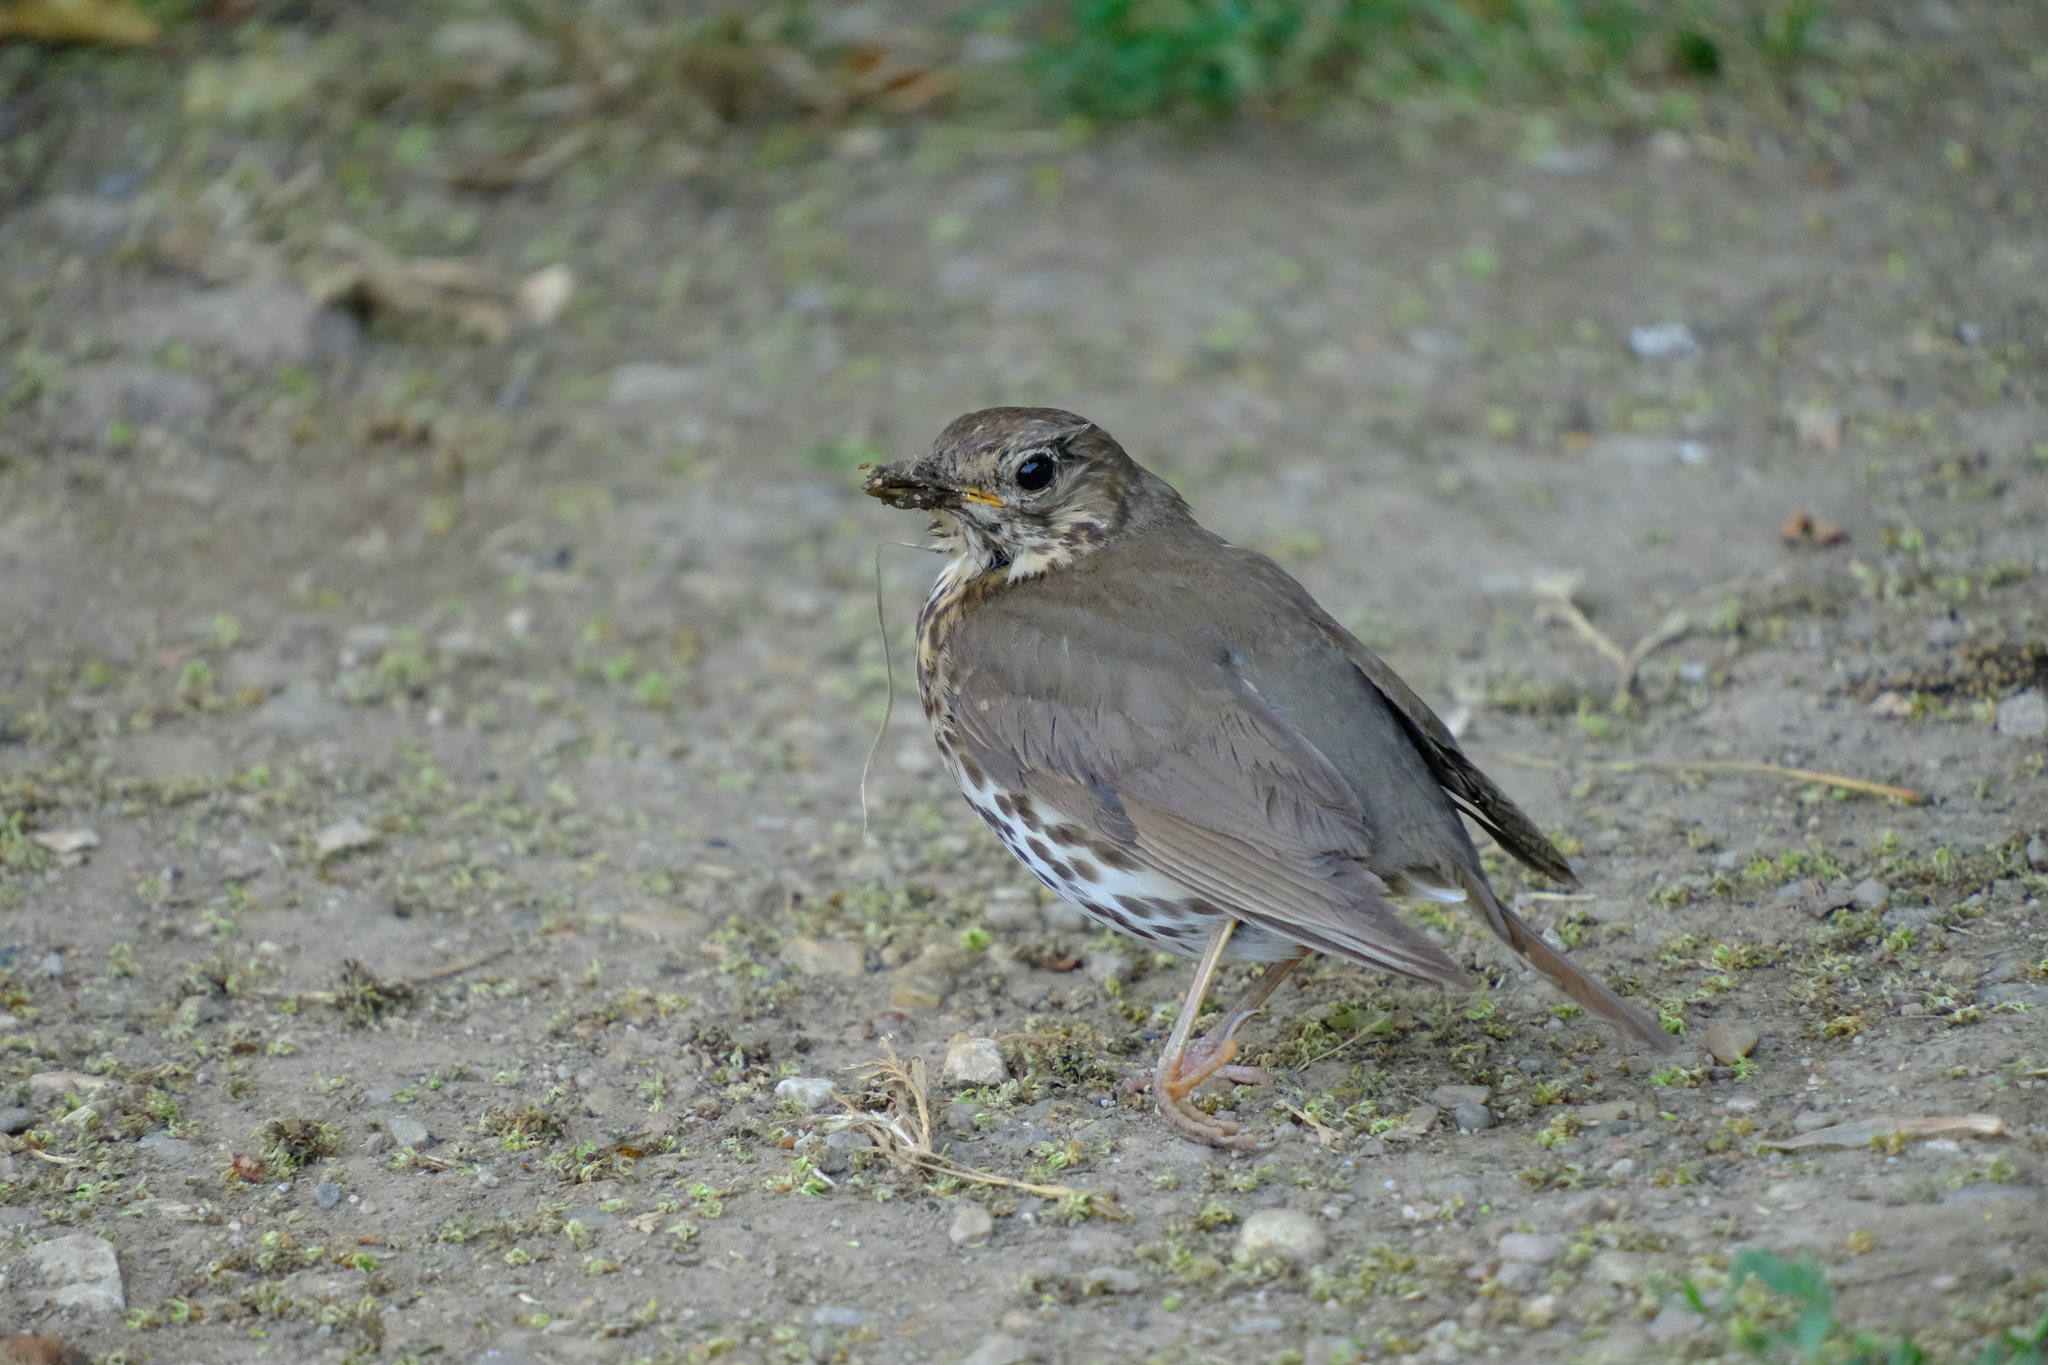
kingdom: Animalia
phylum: Chordata
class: Aves
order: Passeriformes
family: Turdidae
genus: Turdus
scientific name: Turdus philomelos
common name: Song thrush
